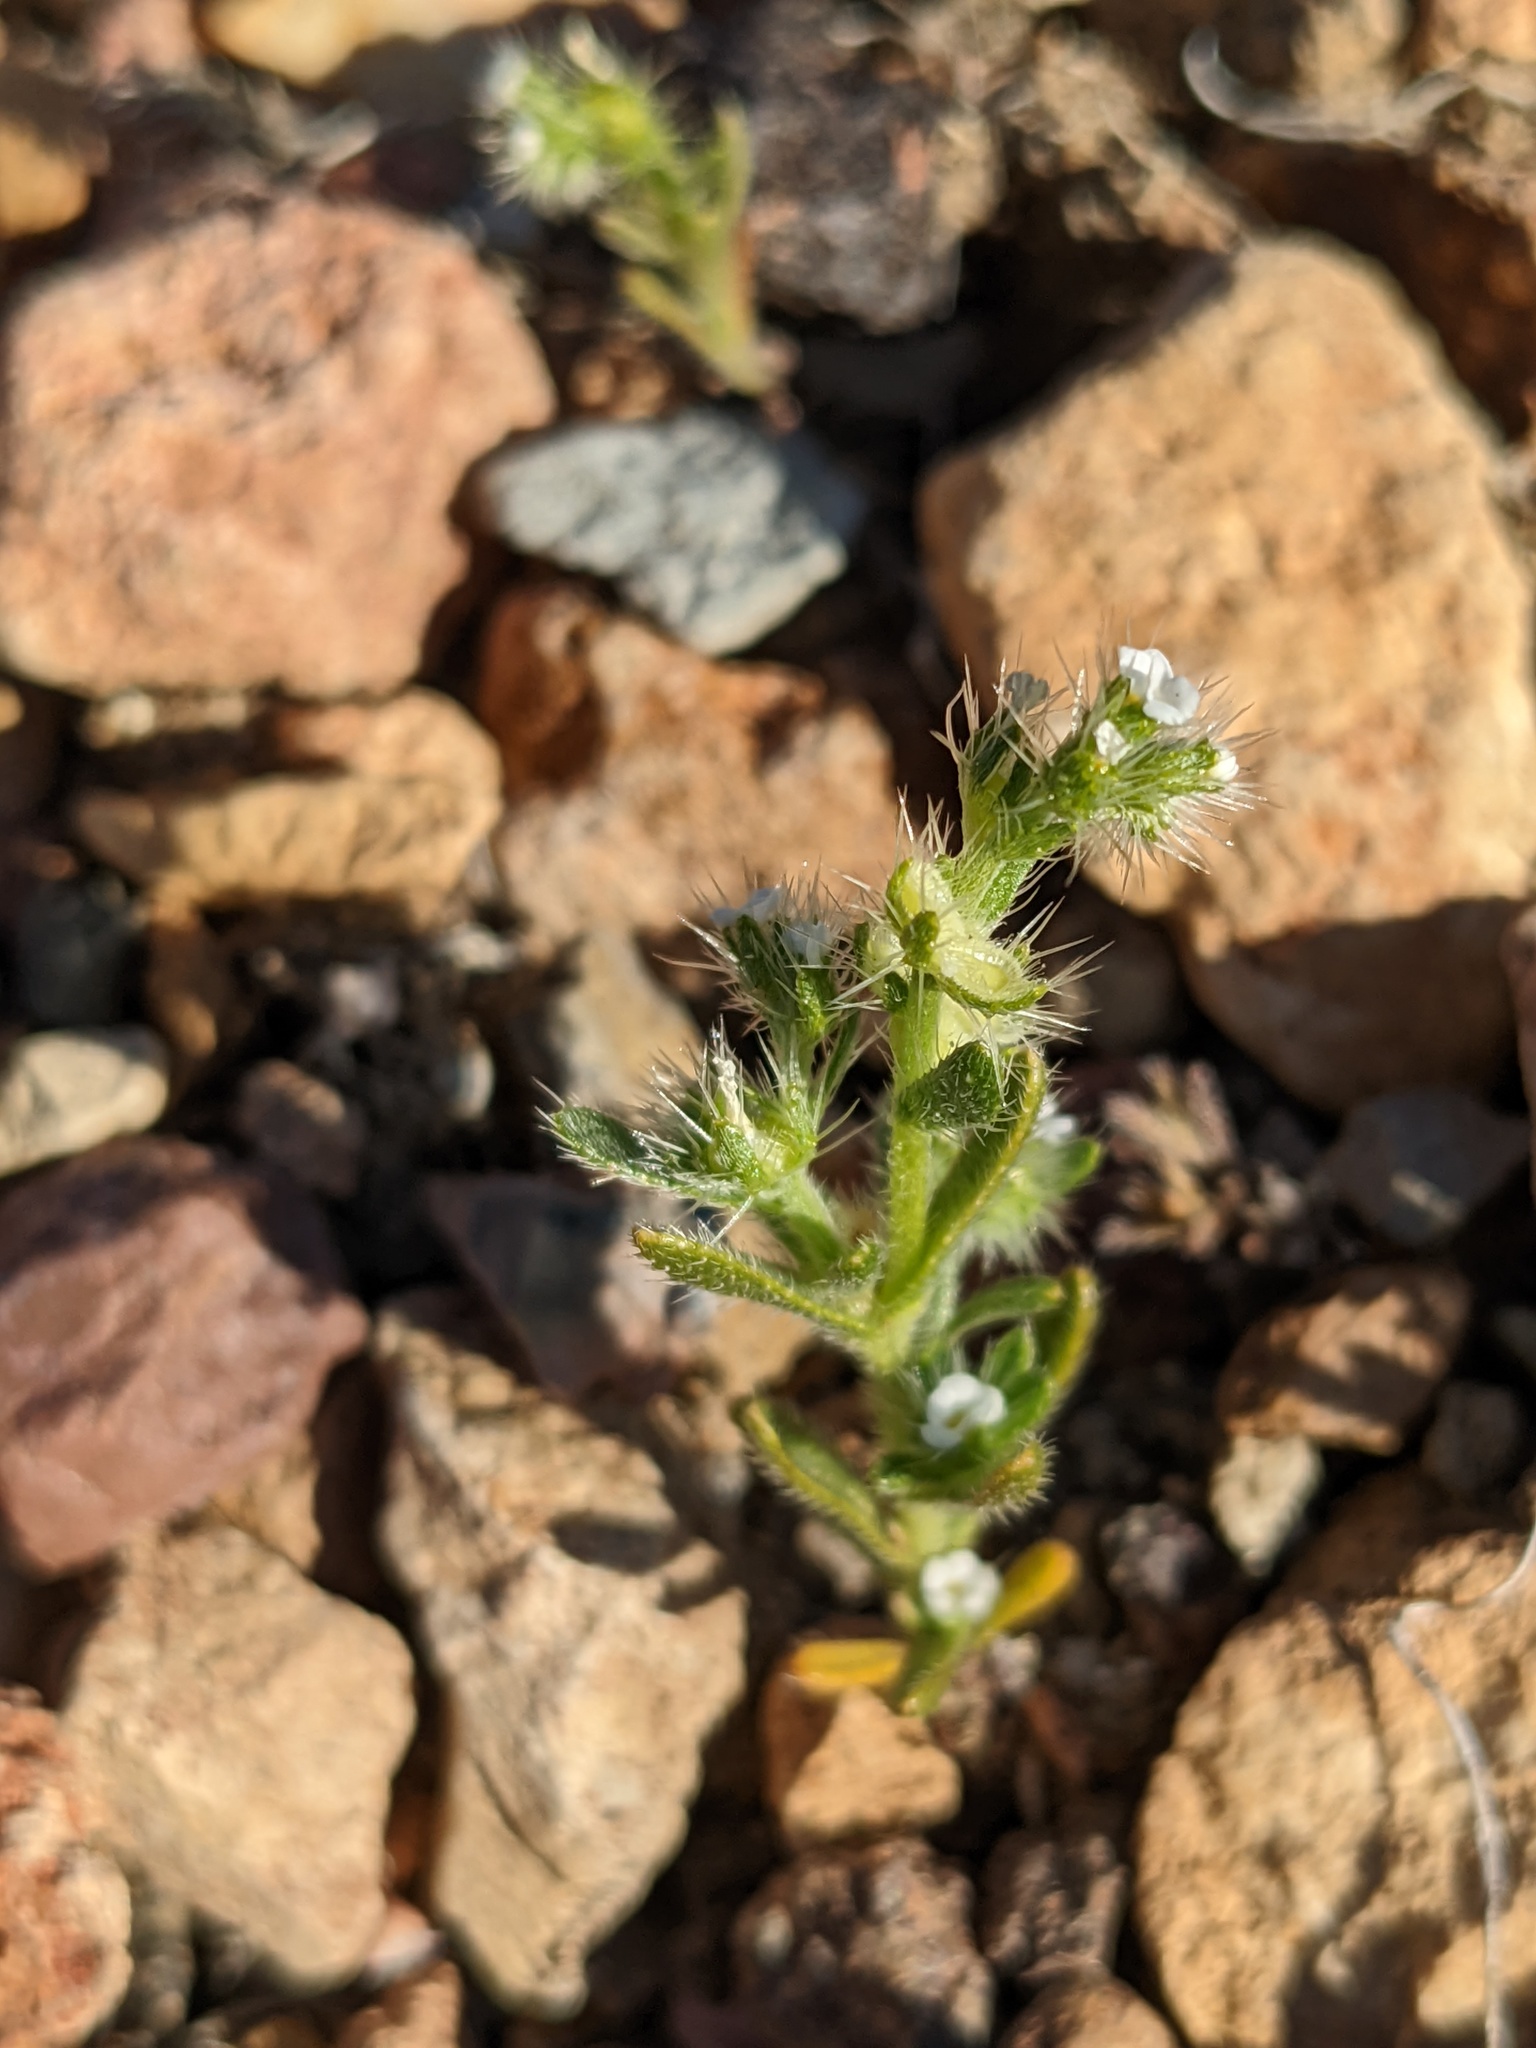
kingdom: Plantae
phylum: Tracheophyta
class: Magnoliopsida
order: Boraginales
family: Boraginaceae
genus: Pectocarya
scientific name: Pectocarya setosa
